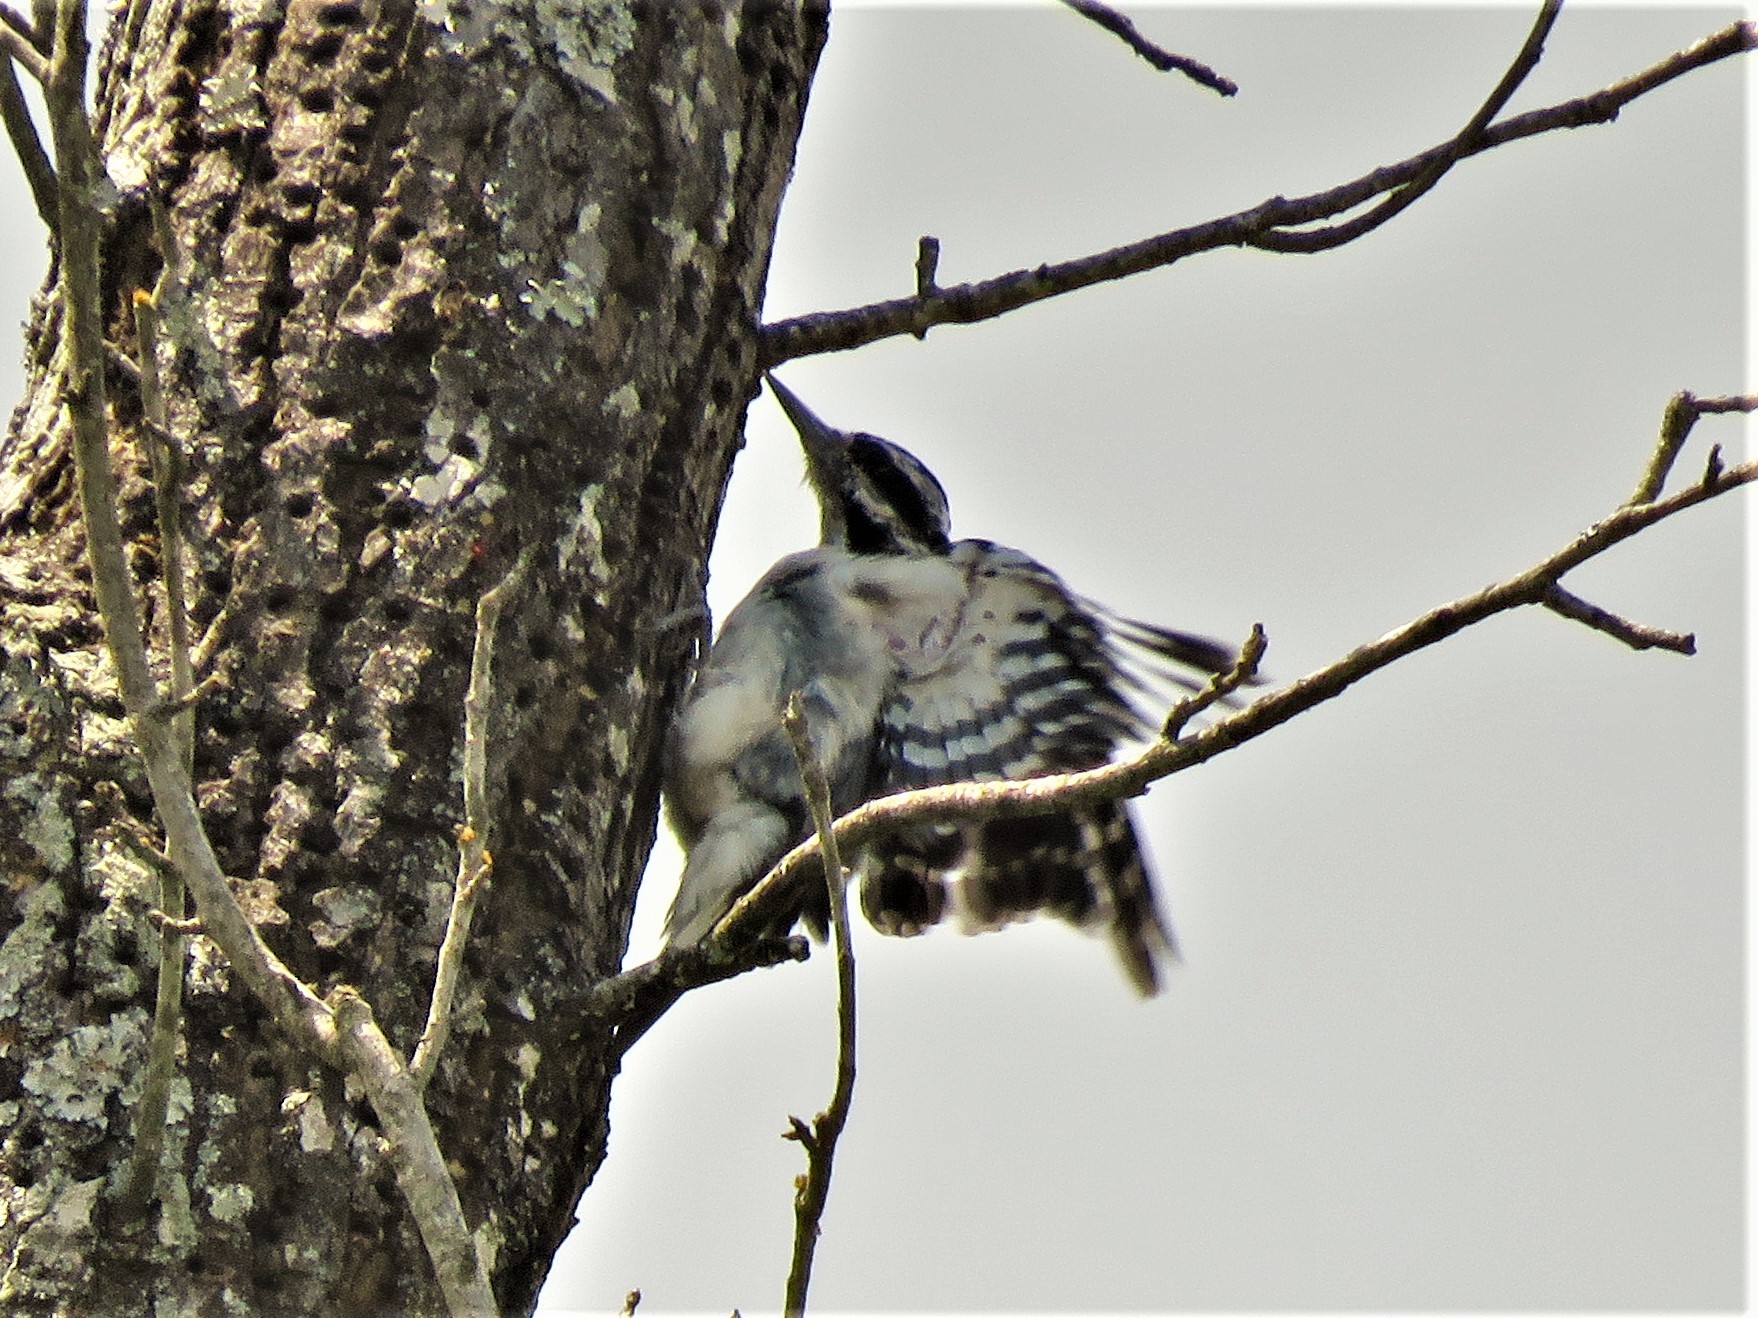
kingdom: Animalia
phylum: Chordata
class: Aves
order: Piciformes
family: Picidae
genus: Leuconotopicus
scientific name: Leuconotopicus villosus
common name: Hairy woodpecker
